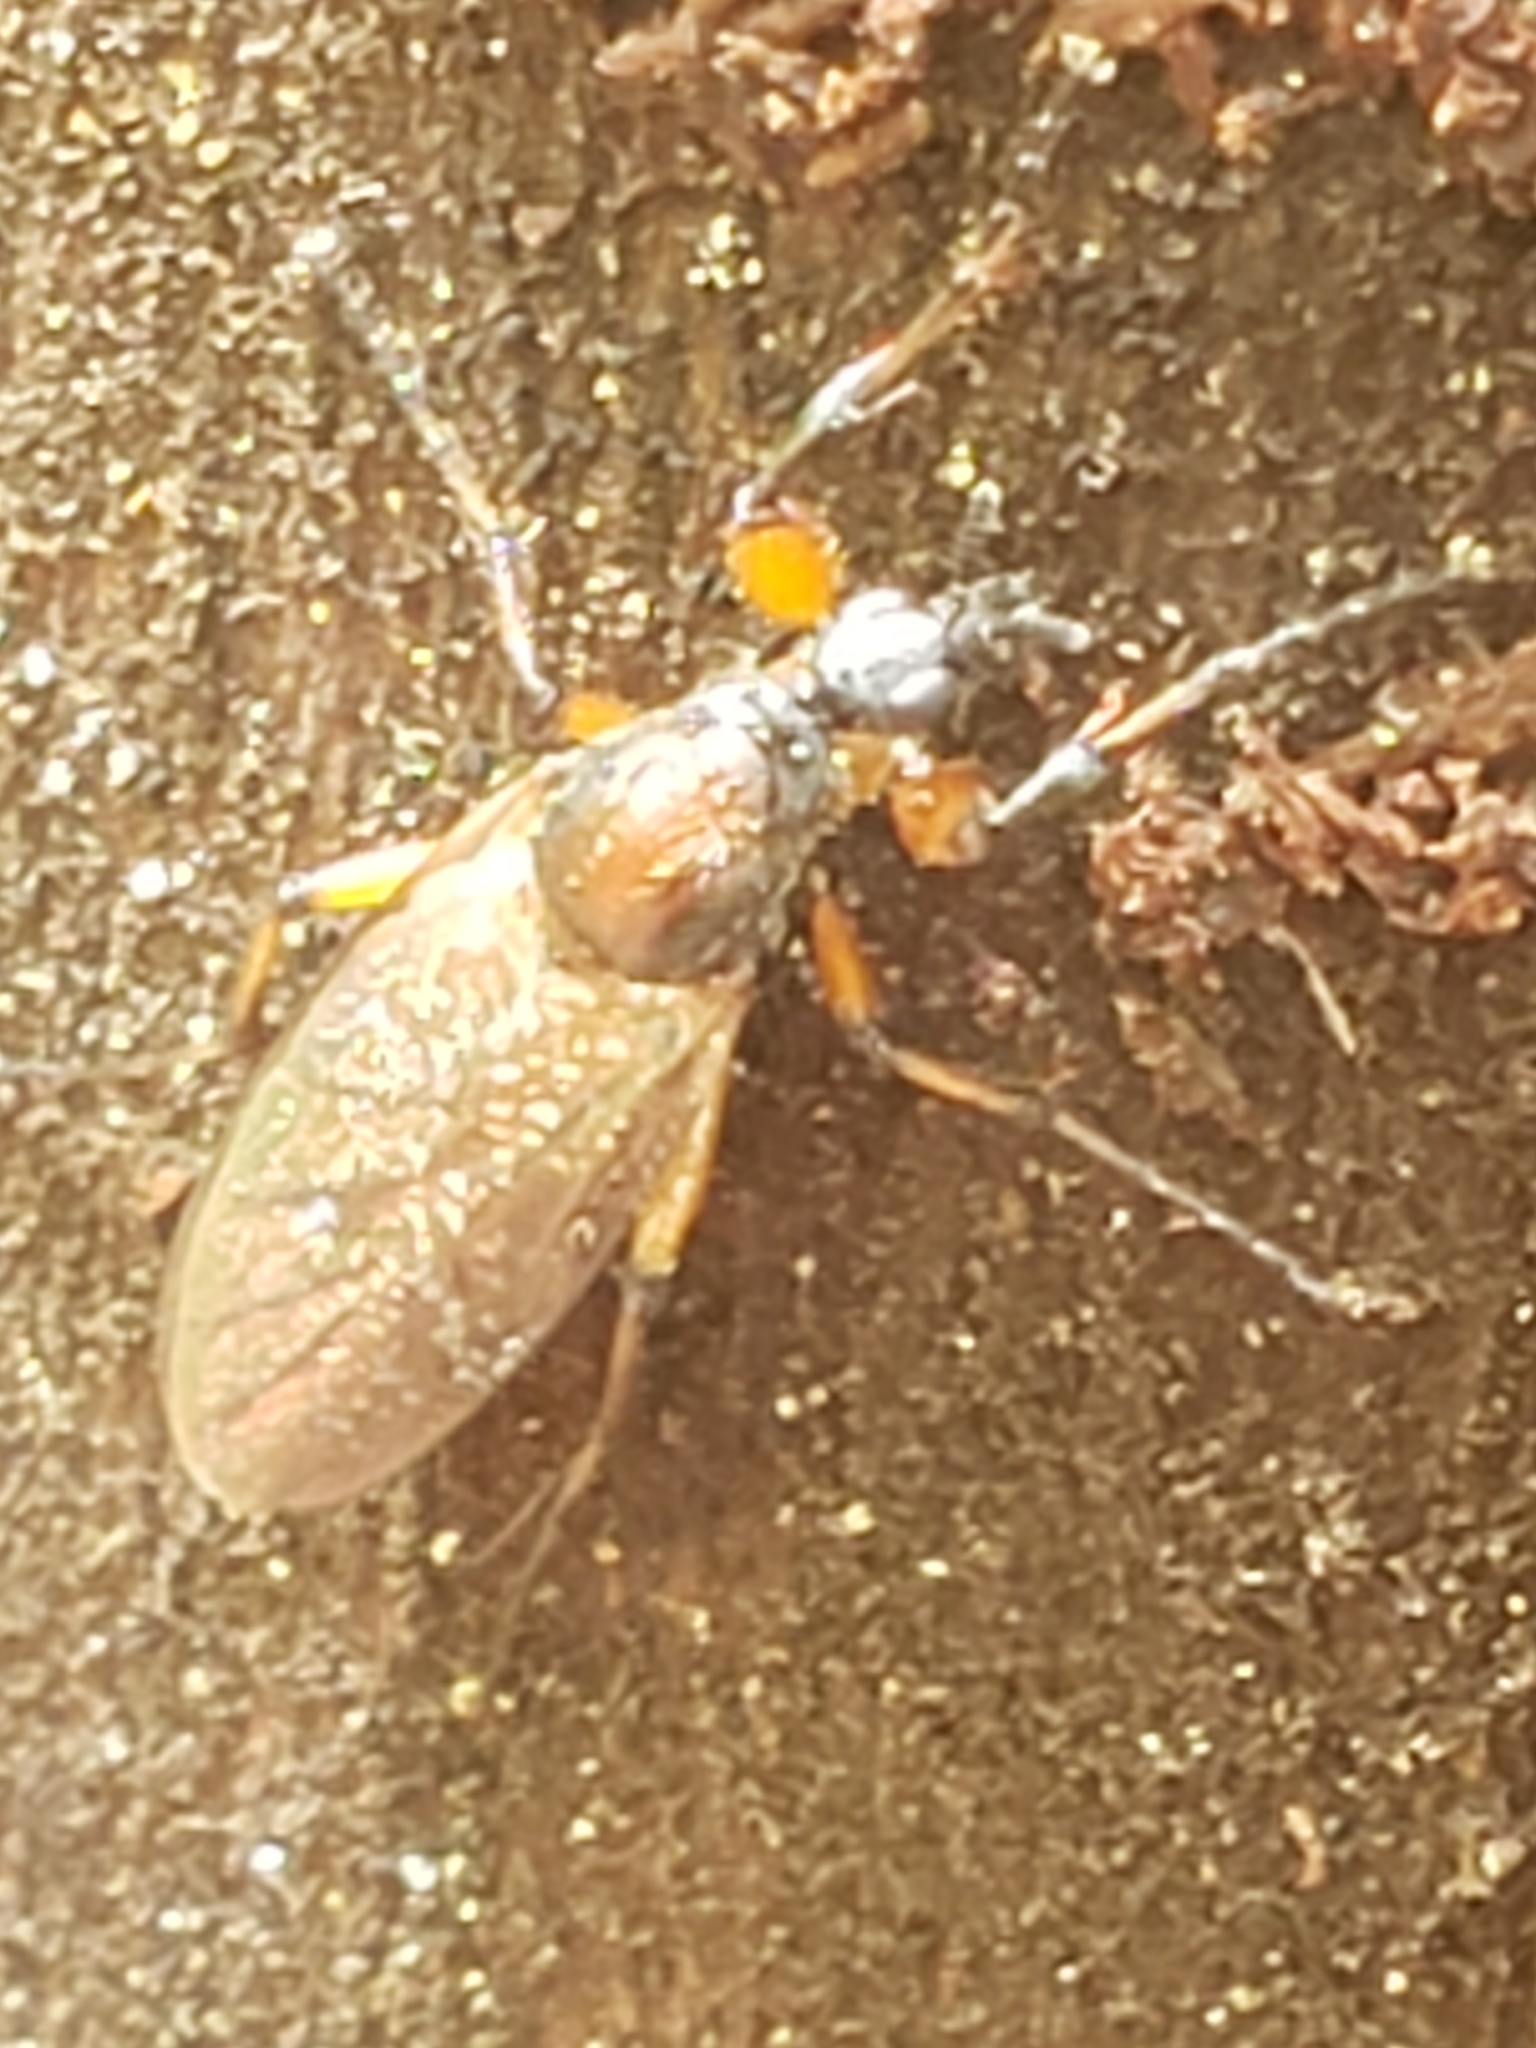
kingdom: Animalia
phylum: Arthropoda
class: Insecta
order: Diptera
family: Bibionidae
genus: Bibio
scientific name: Bibio articulatus
